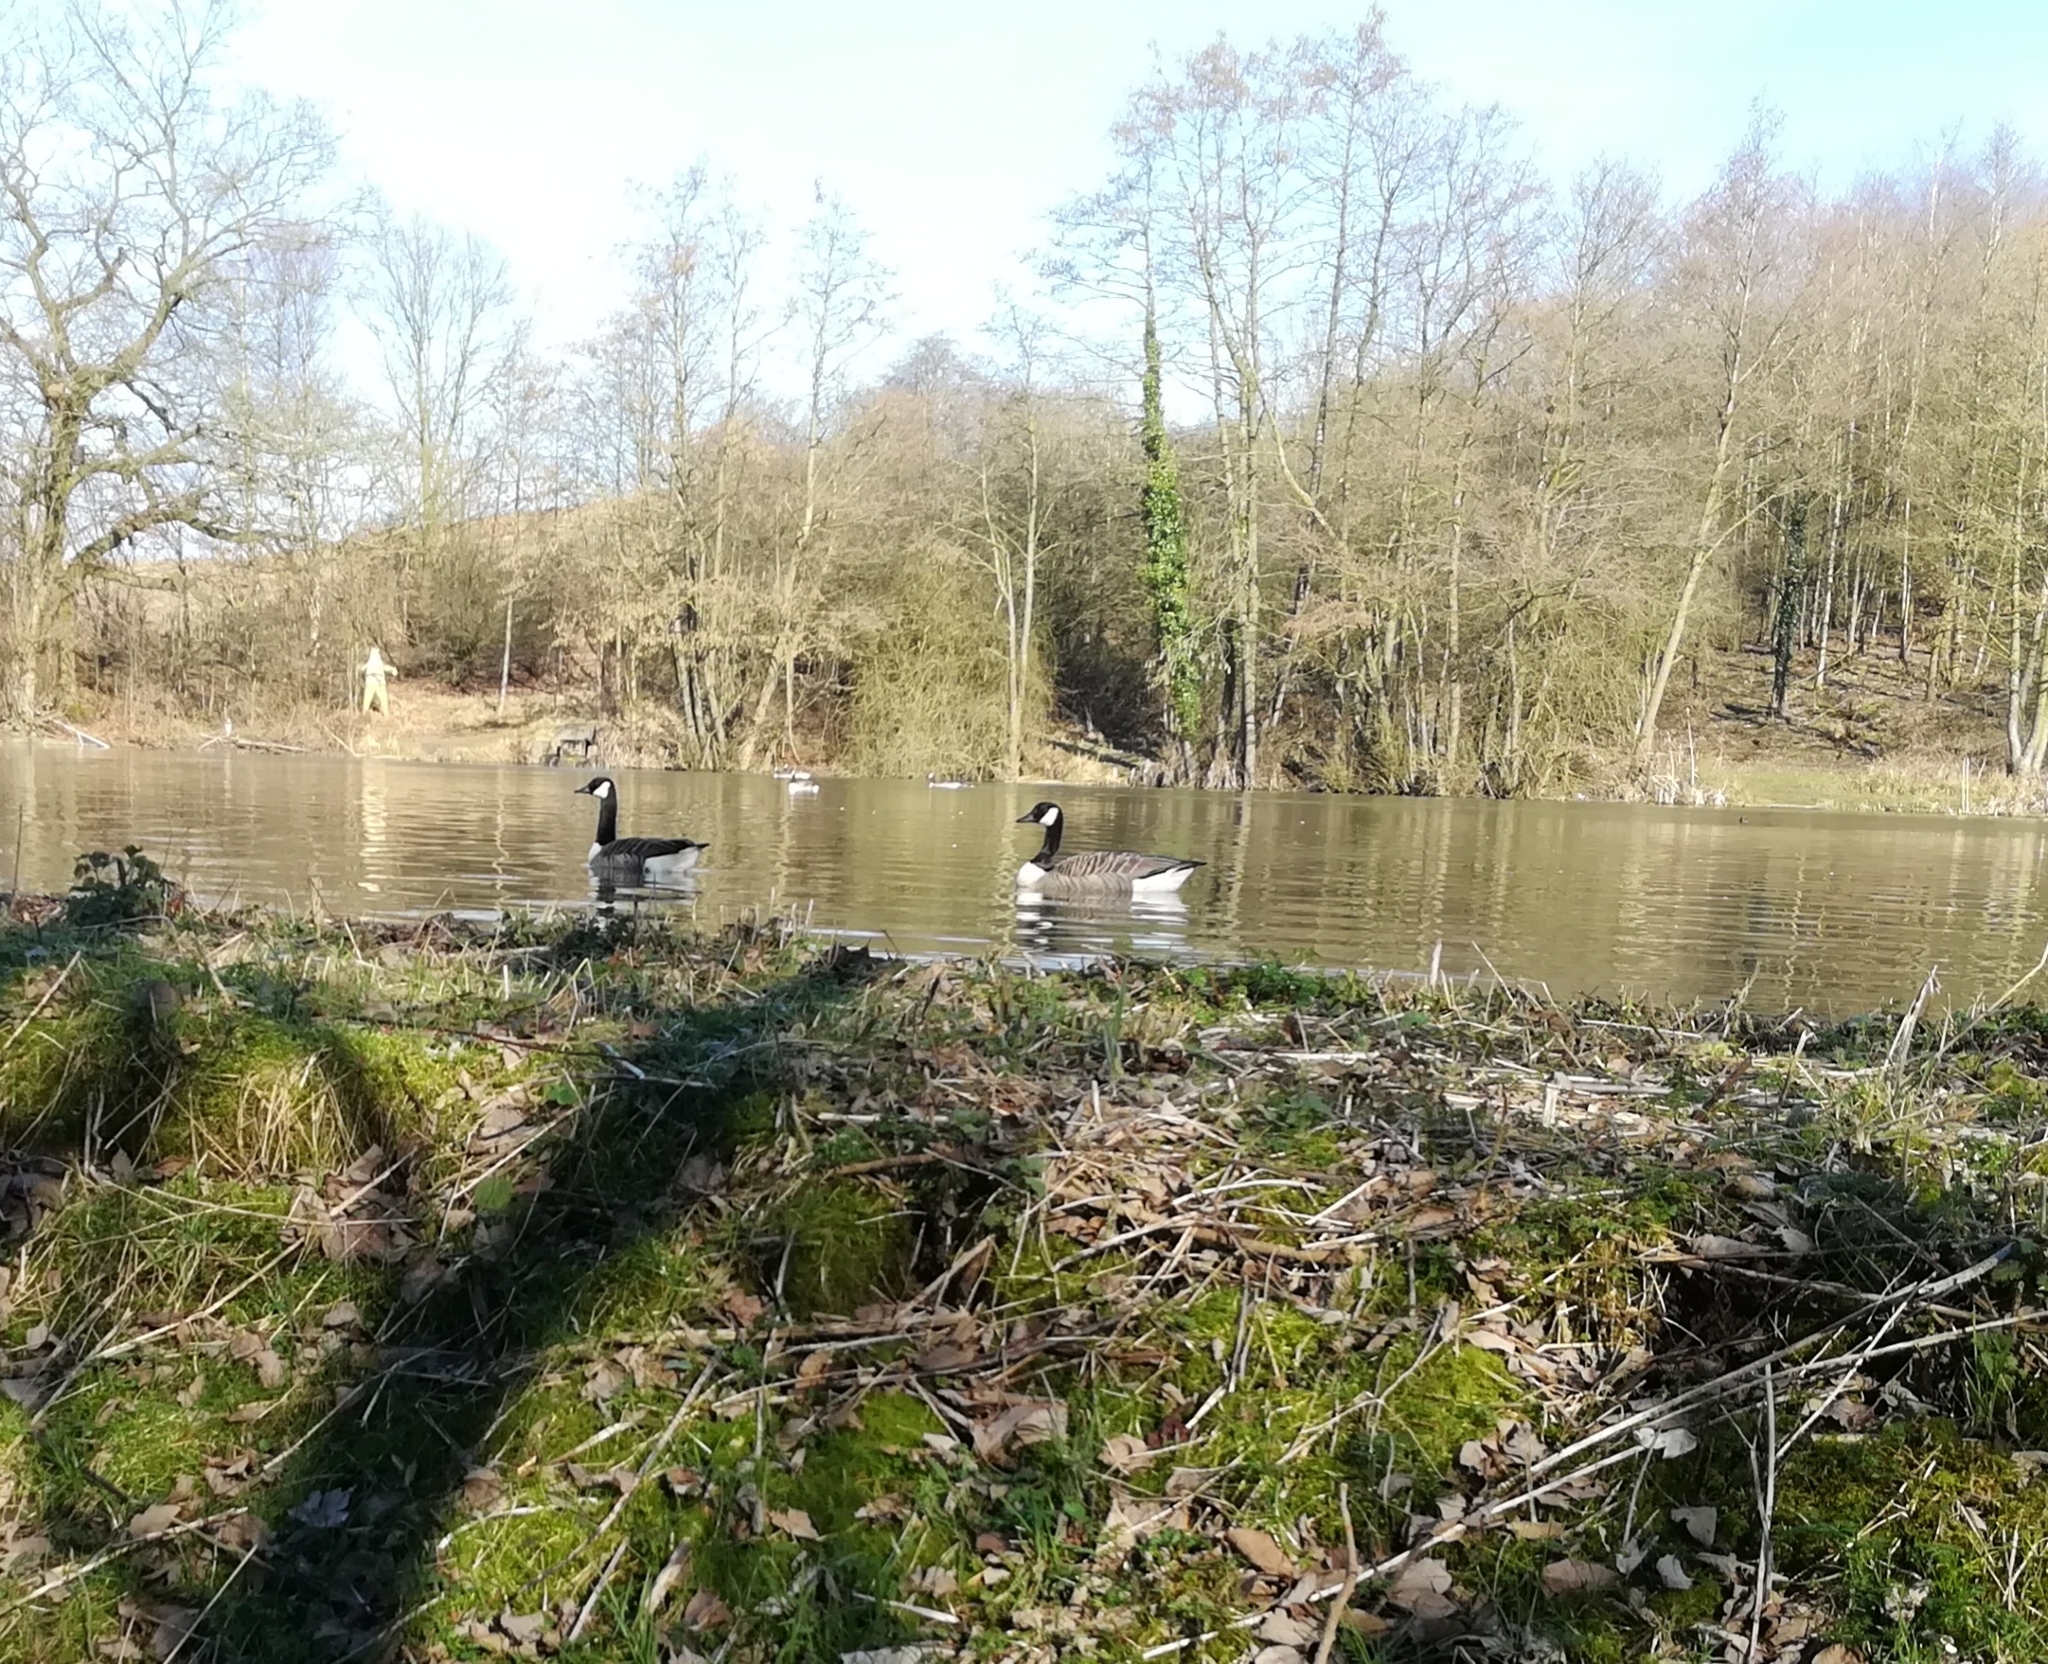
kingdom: Animalia
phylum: Chordata
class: Aves
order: Anseriformes
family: Anatidae
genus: Branta
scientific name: Branta canadensis
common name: Canada goose
